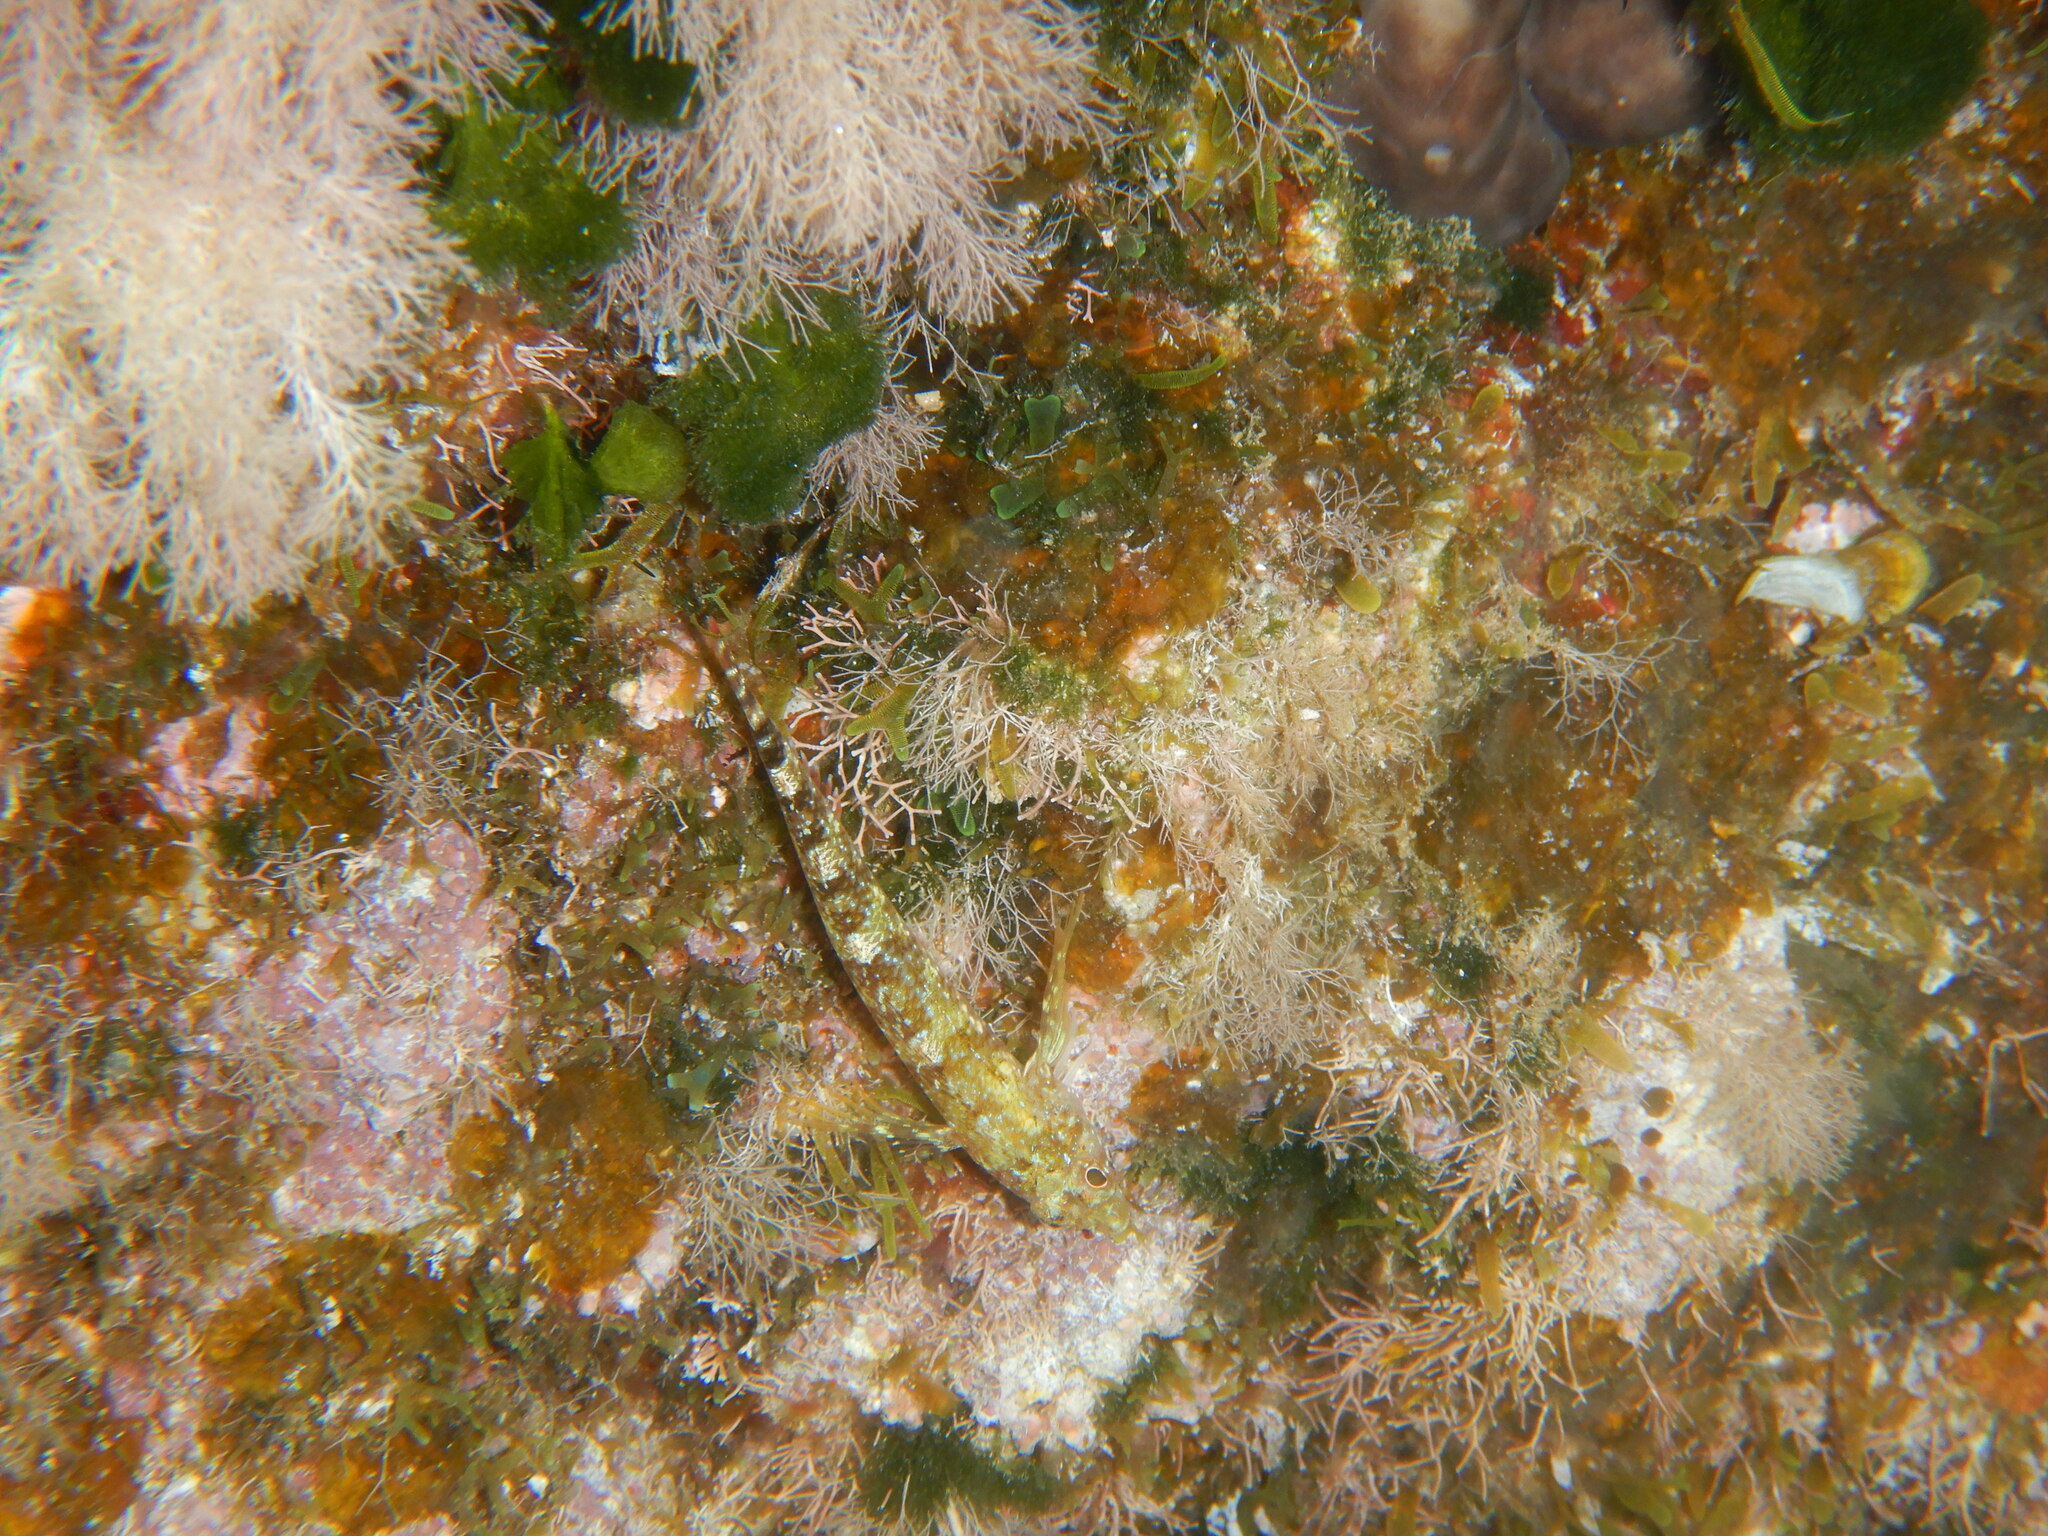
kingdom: Animalia
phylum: Chordata
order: Perciformes
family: Tripterygiidae
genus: Tripterygion
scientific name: Tripterygion tripteronotum
